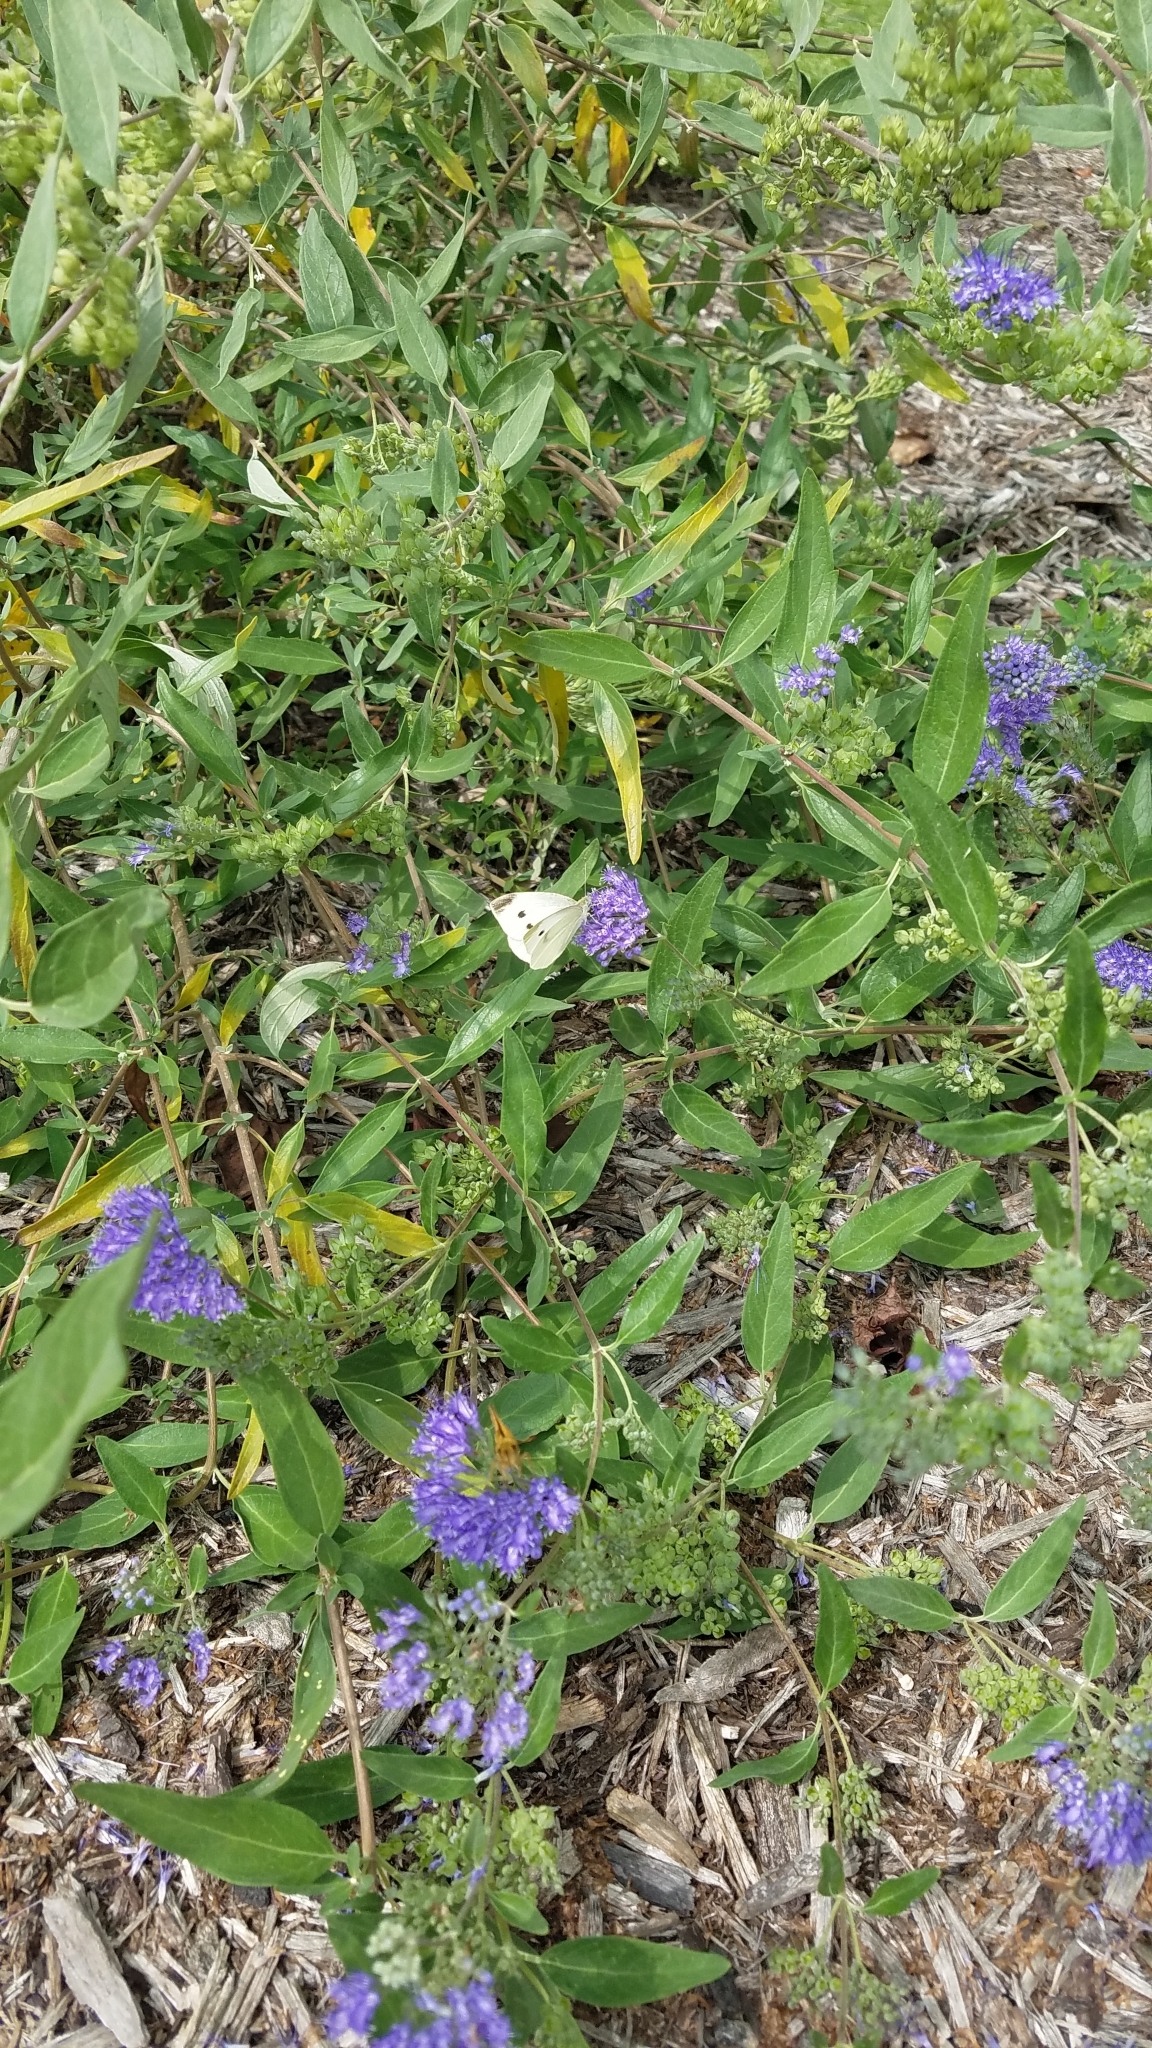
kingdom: Animalia
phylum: Arthropoda
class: Insecta
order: Lepidoptera
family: Pieridae
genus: Pieris
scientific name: Pieris rapae
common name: Small white
